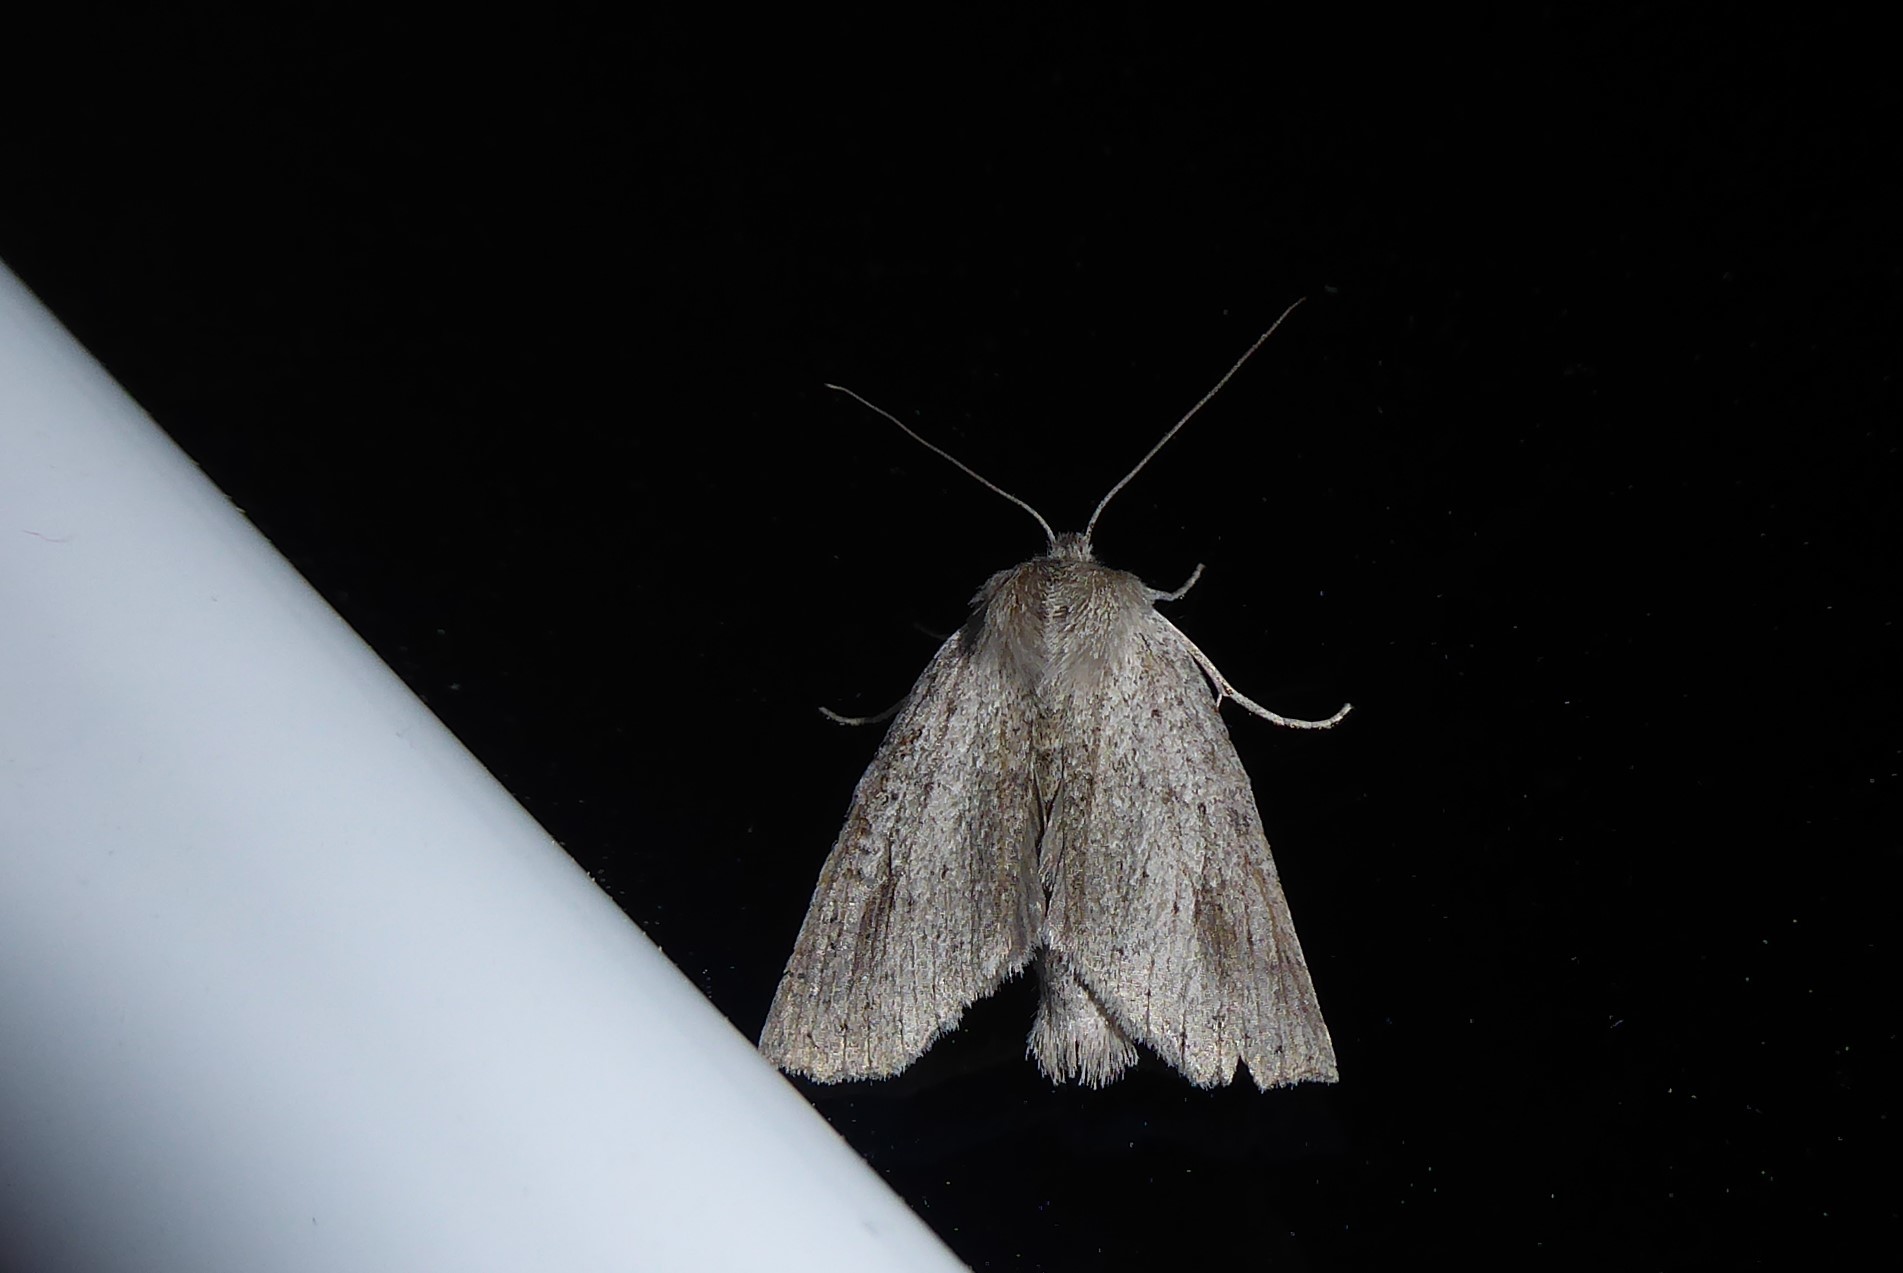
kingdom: Animalia
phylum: Arthropoda
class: Insecta
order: Lepidoptera
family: Geometridae
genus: Declana
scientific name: Declana leptomera
